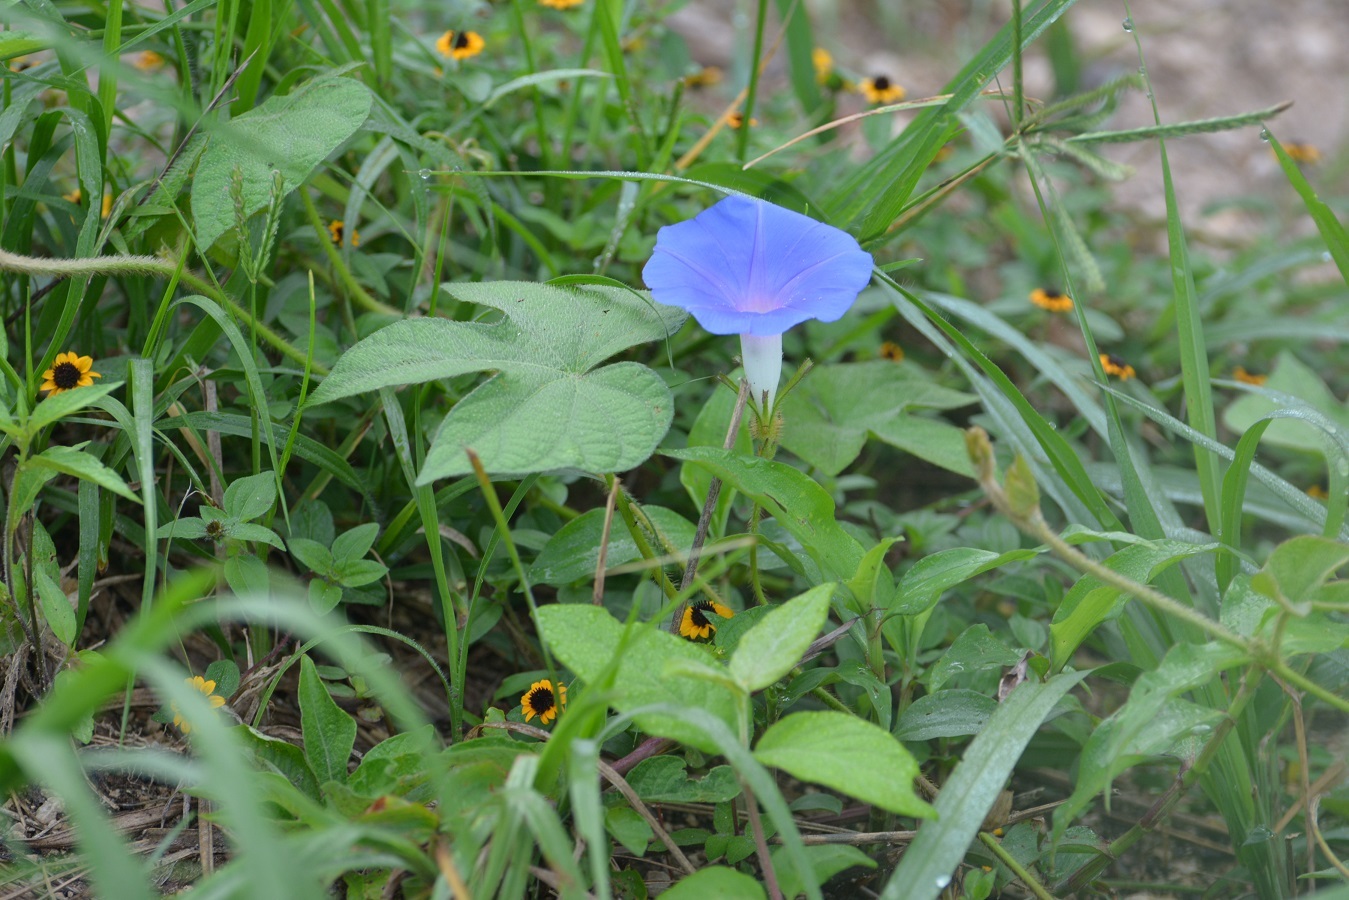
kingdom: Plantae
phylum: Tracheophyta
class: Magnoliopsida
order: Solanales
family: Convolvulaceae
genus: Ipomoea
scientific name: Ipomoea nil
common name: Japanese morning-glory
